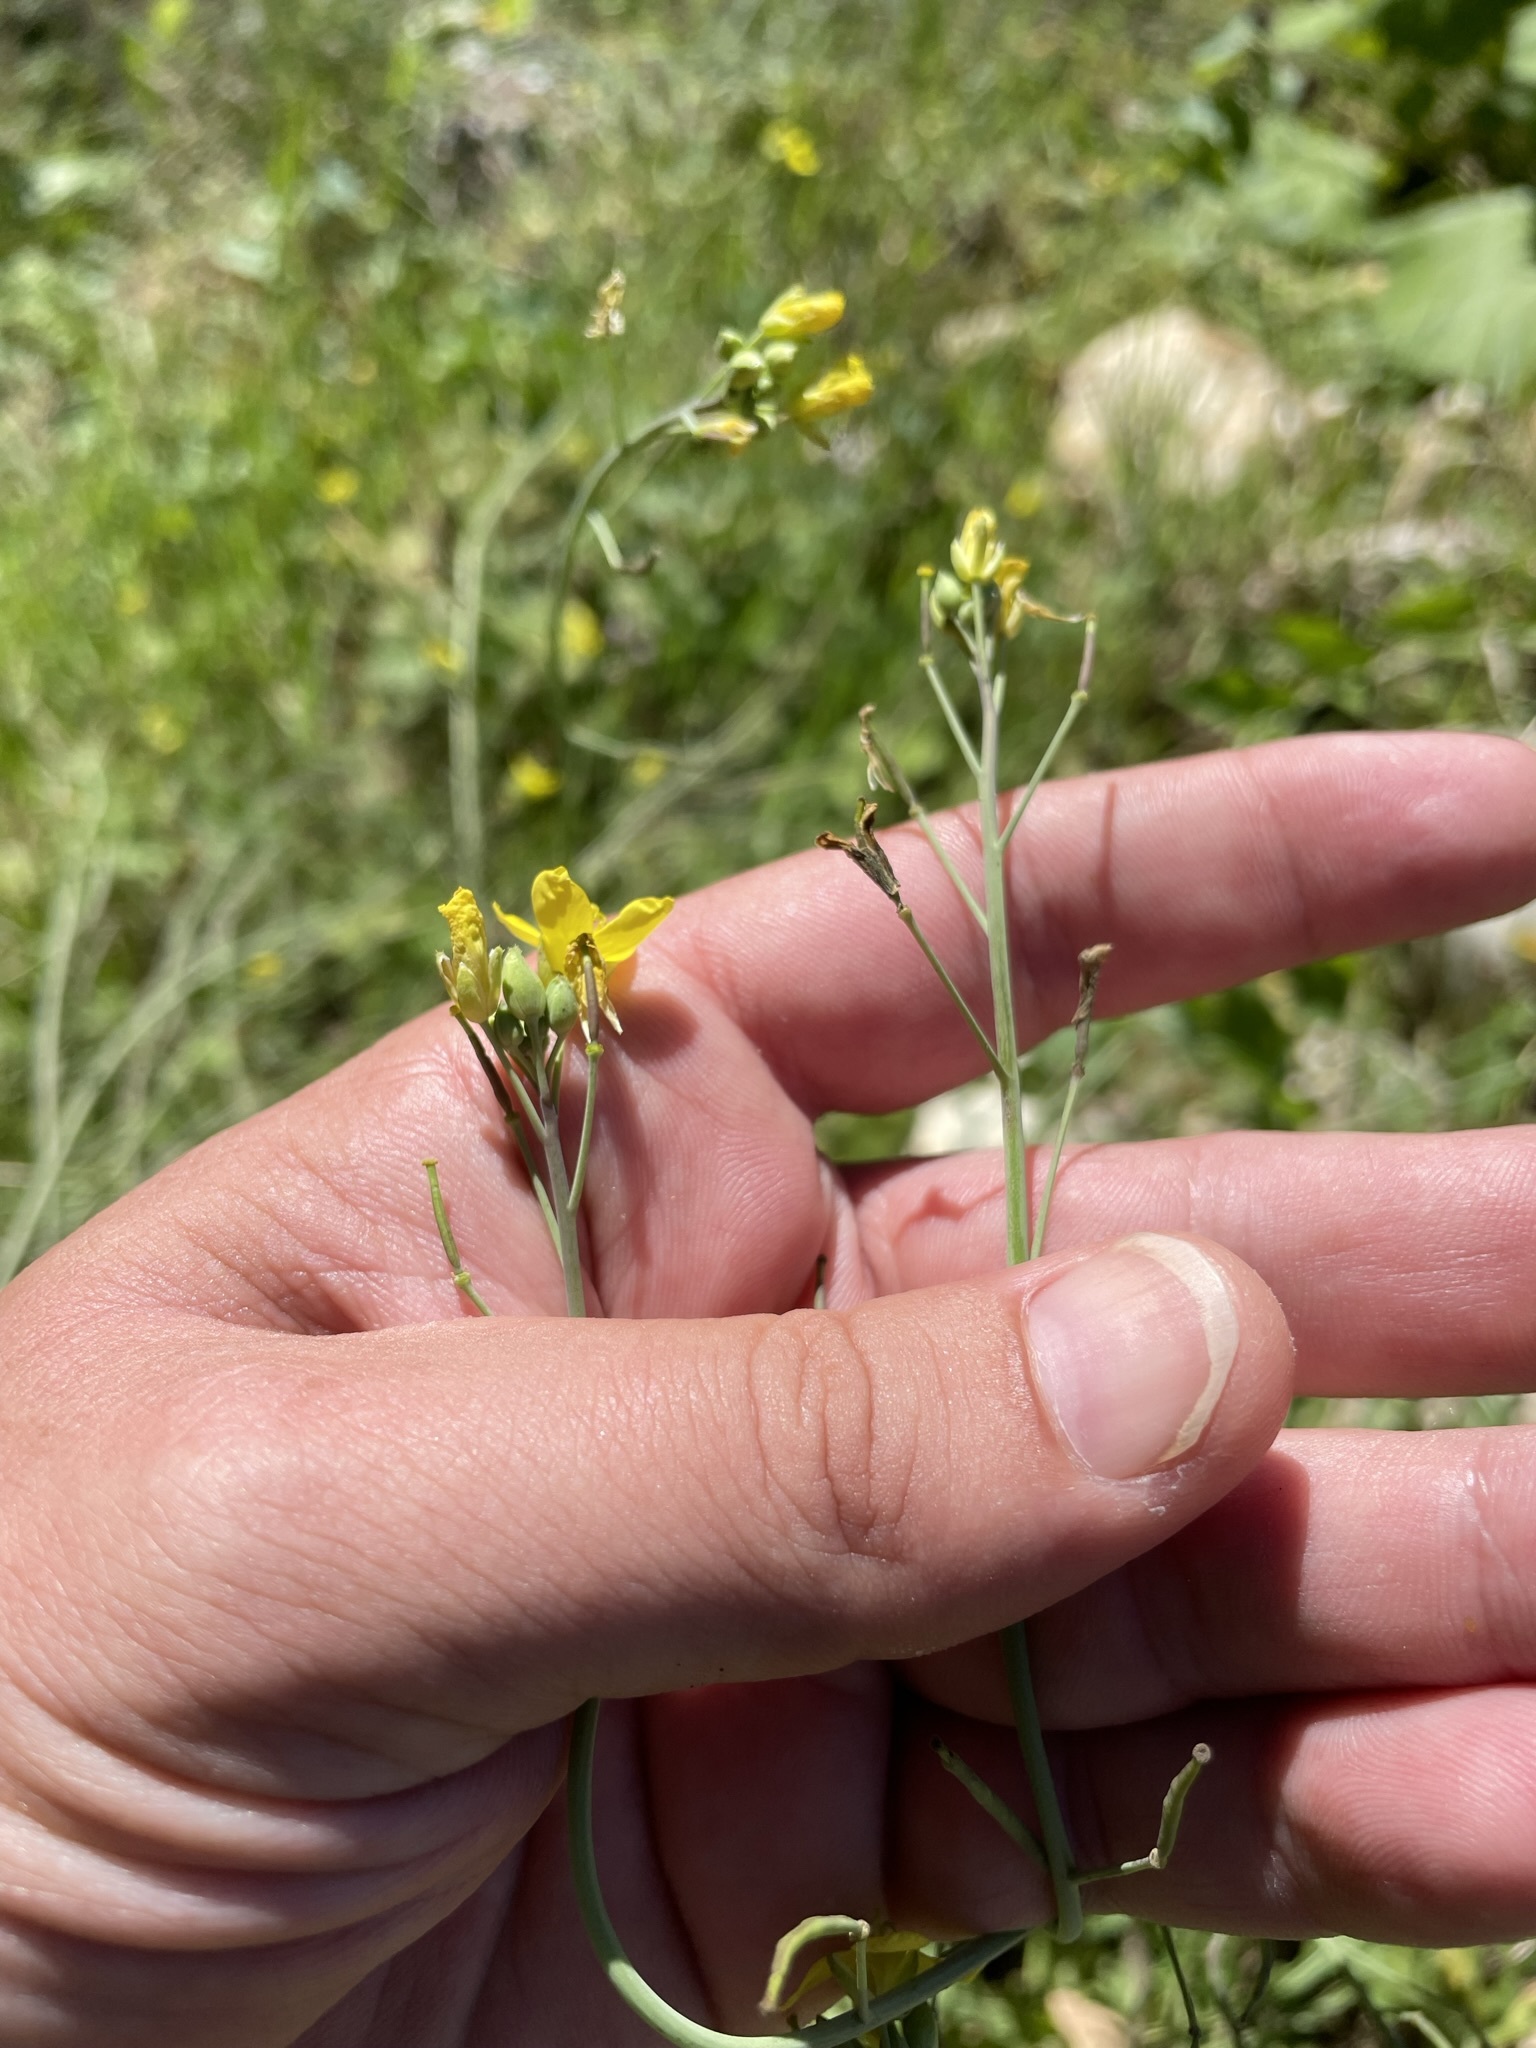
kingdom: Plantae
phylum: Tracheophyta
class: Magnoliopsida
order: Brassicales
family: Brassicaceae
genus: Diplotaxis
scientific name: Diplotaxis tenuifolia
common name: Perennial wall-rocket
